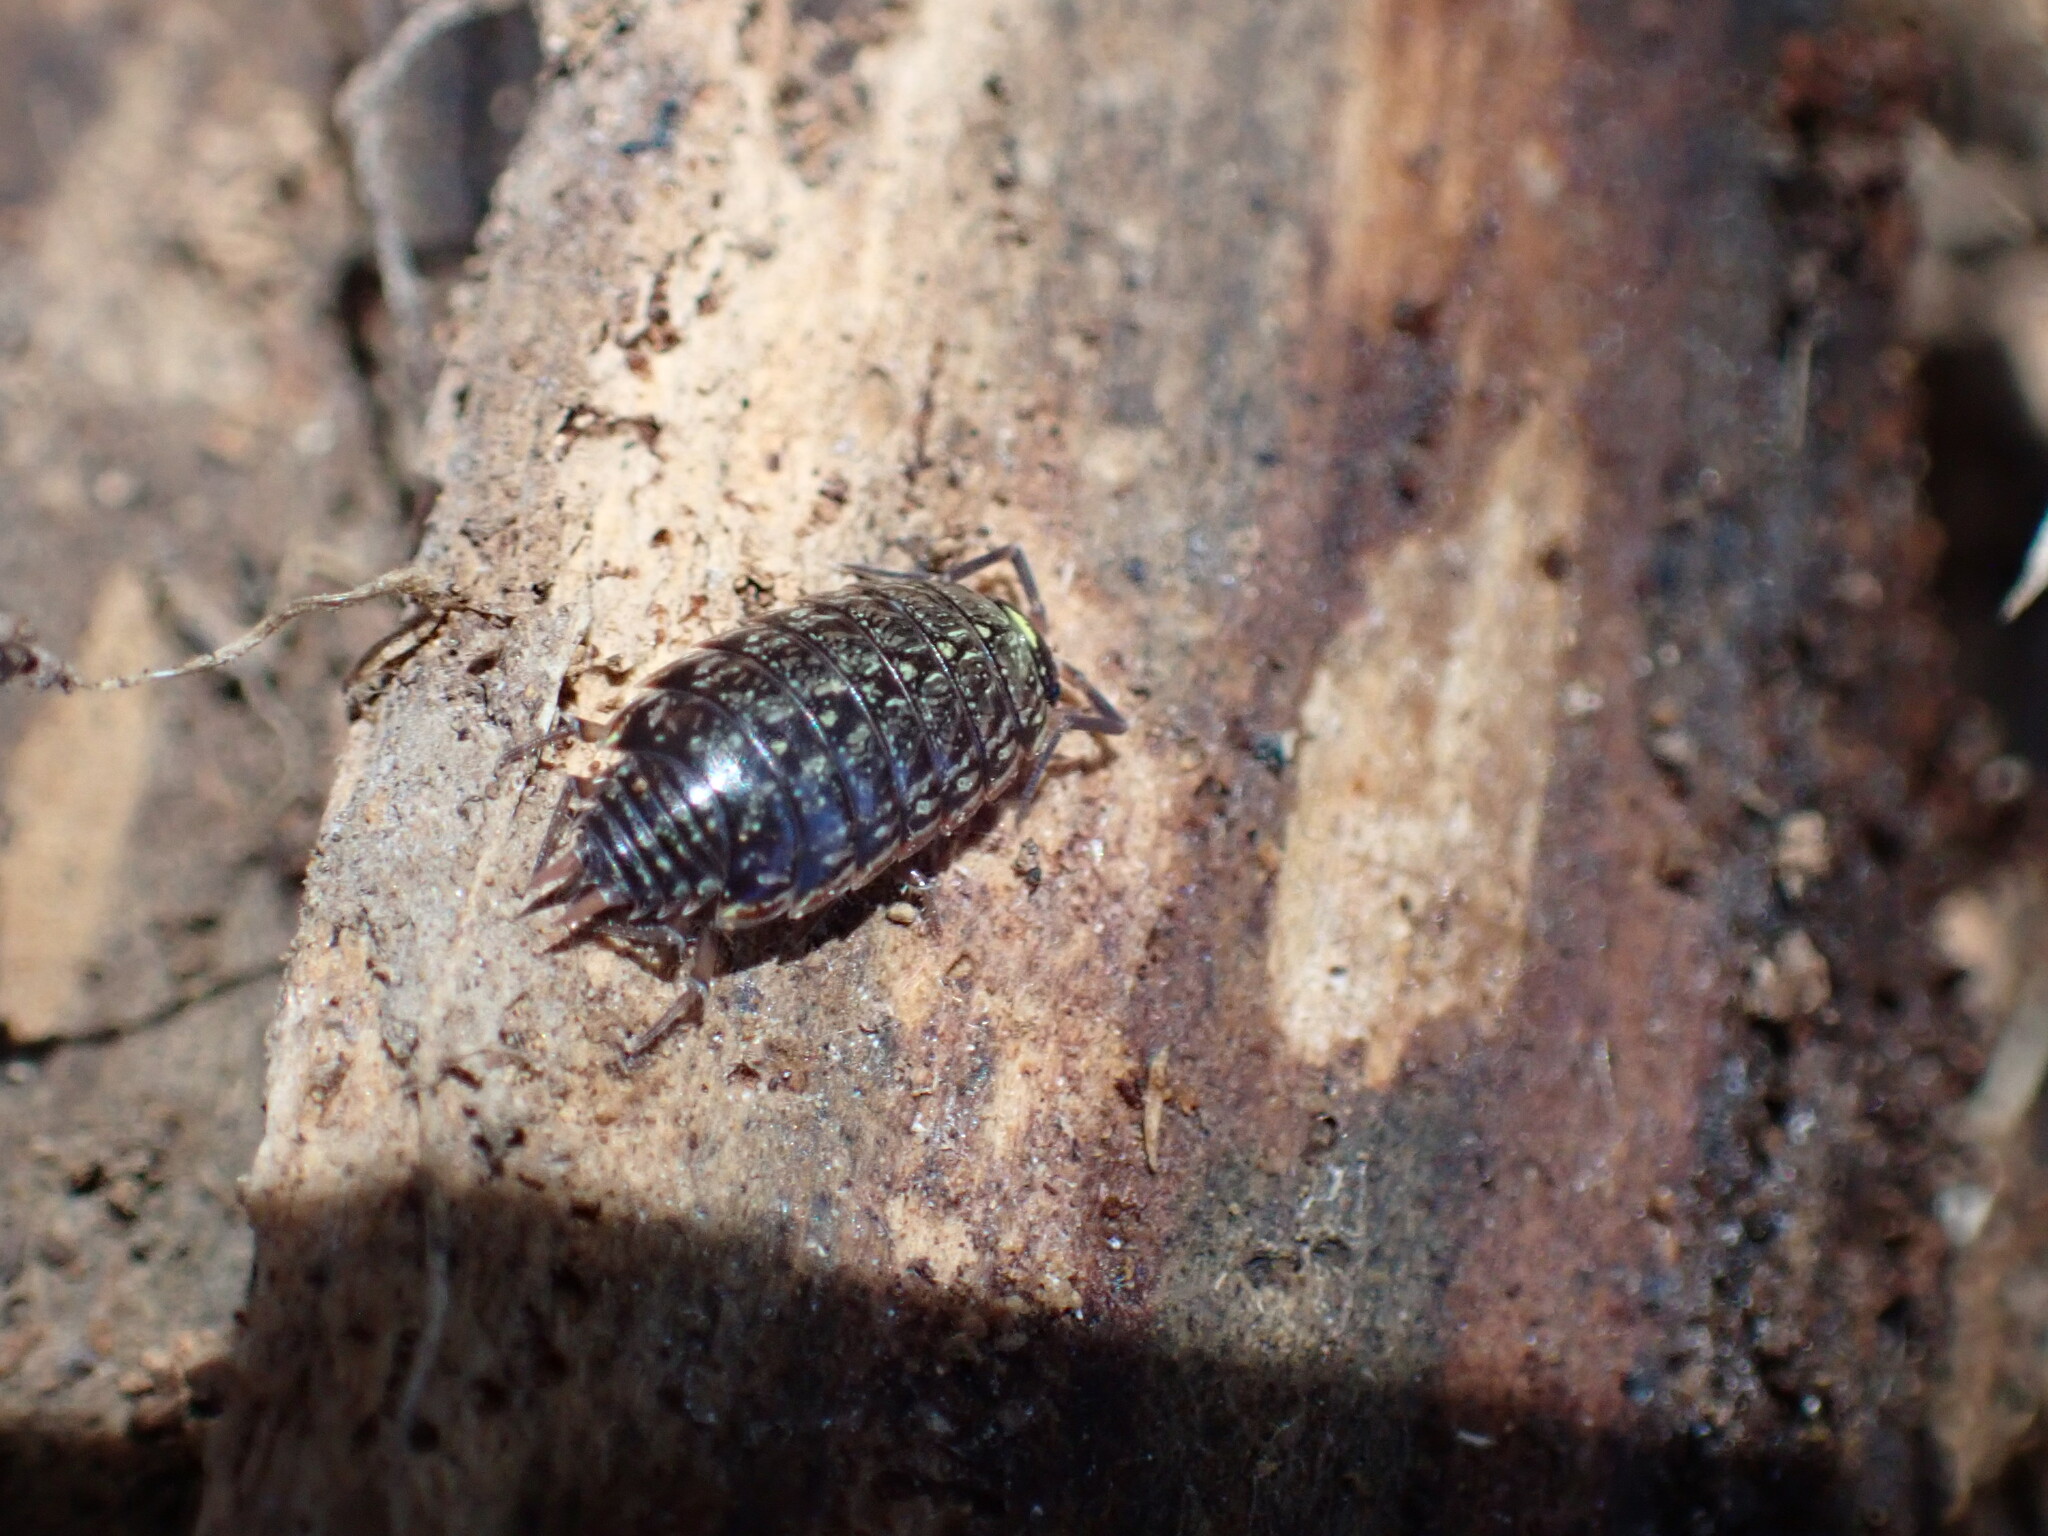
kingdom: Animalia
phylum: Arthropoda
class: Malacostraca
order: Isopoda
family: Philosciidae
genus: Philoscia
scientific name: Philoscia muscorum
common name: Common striped woodlouse
